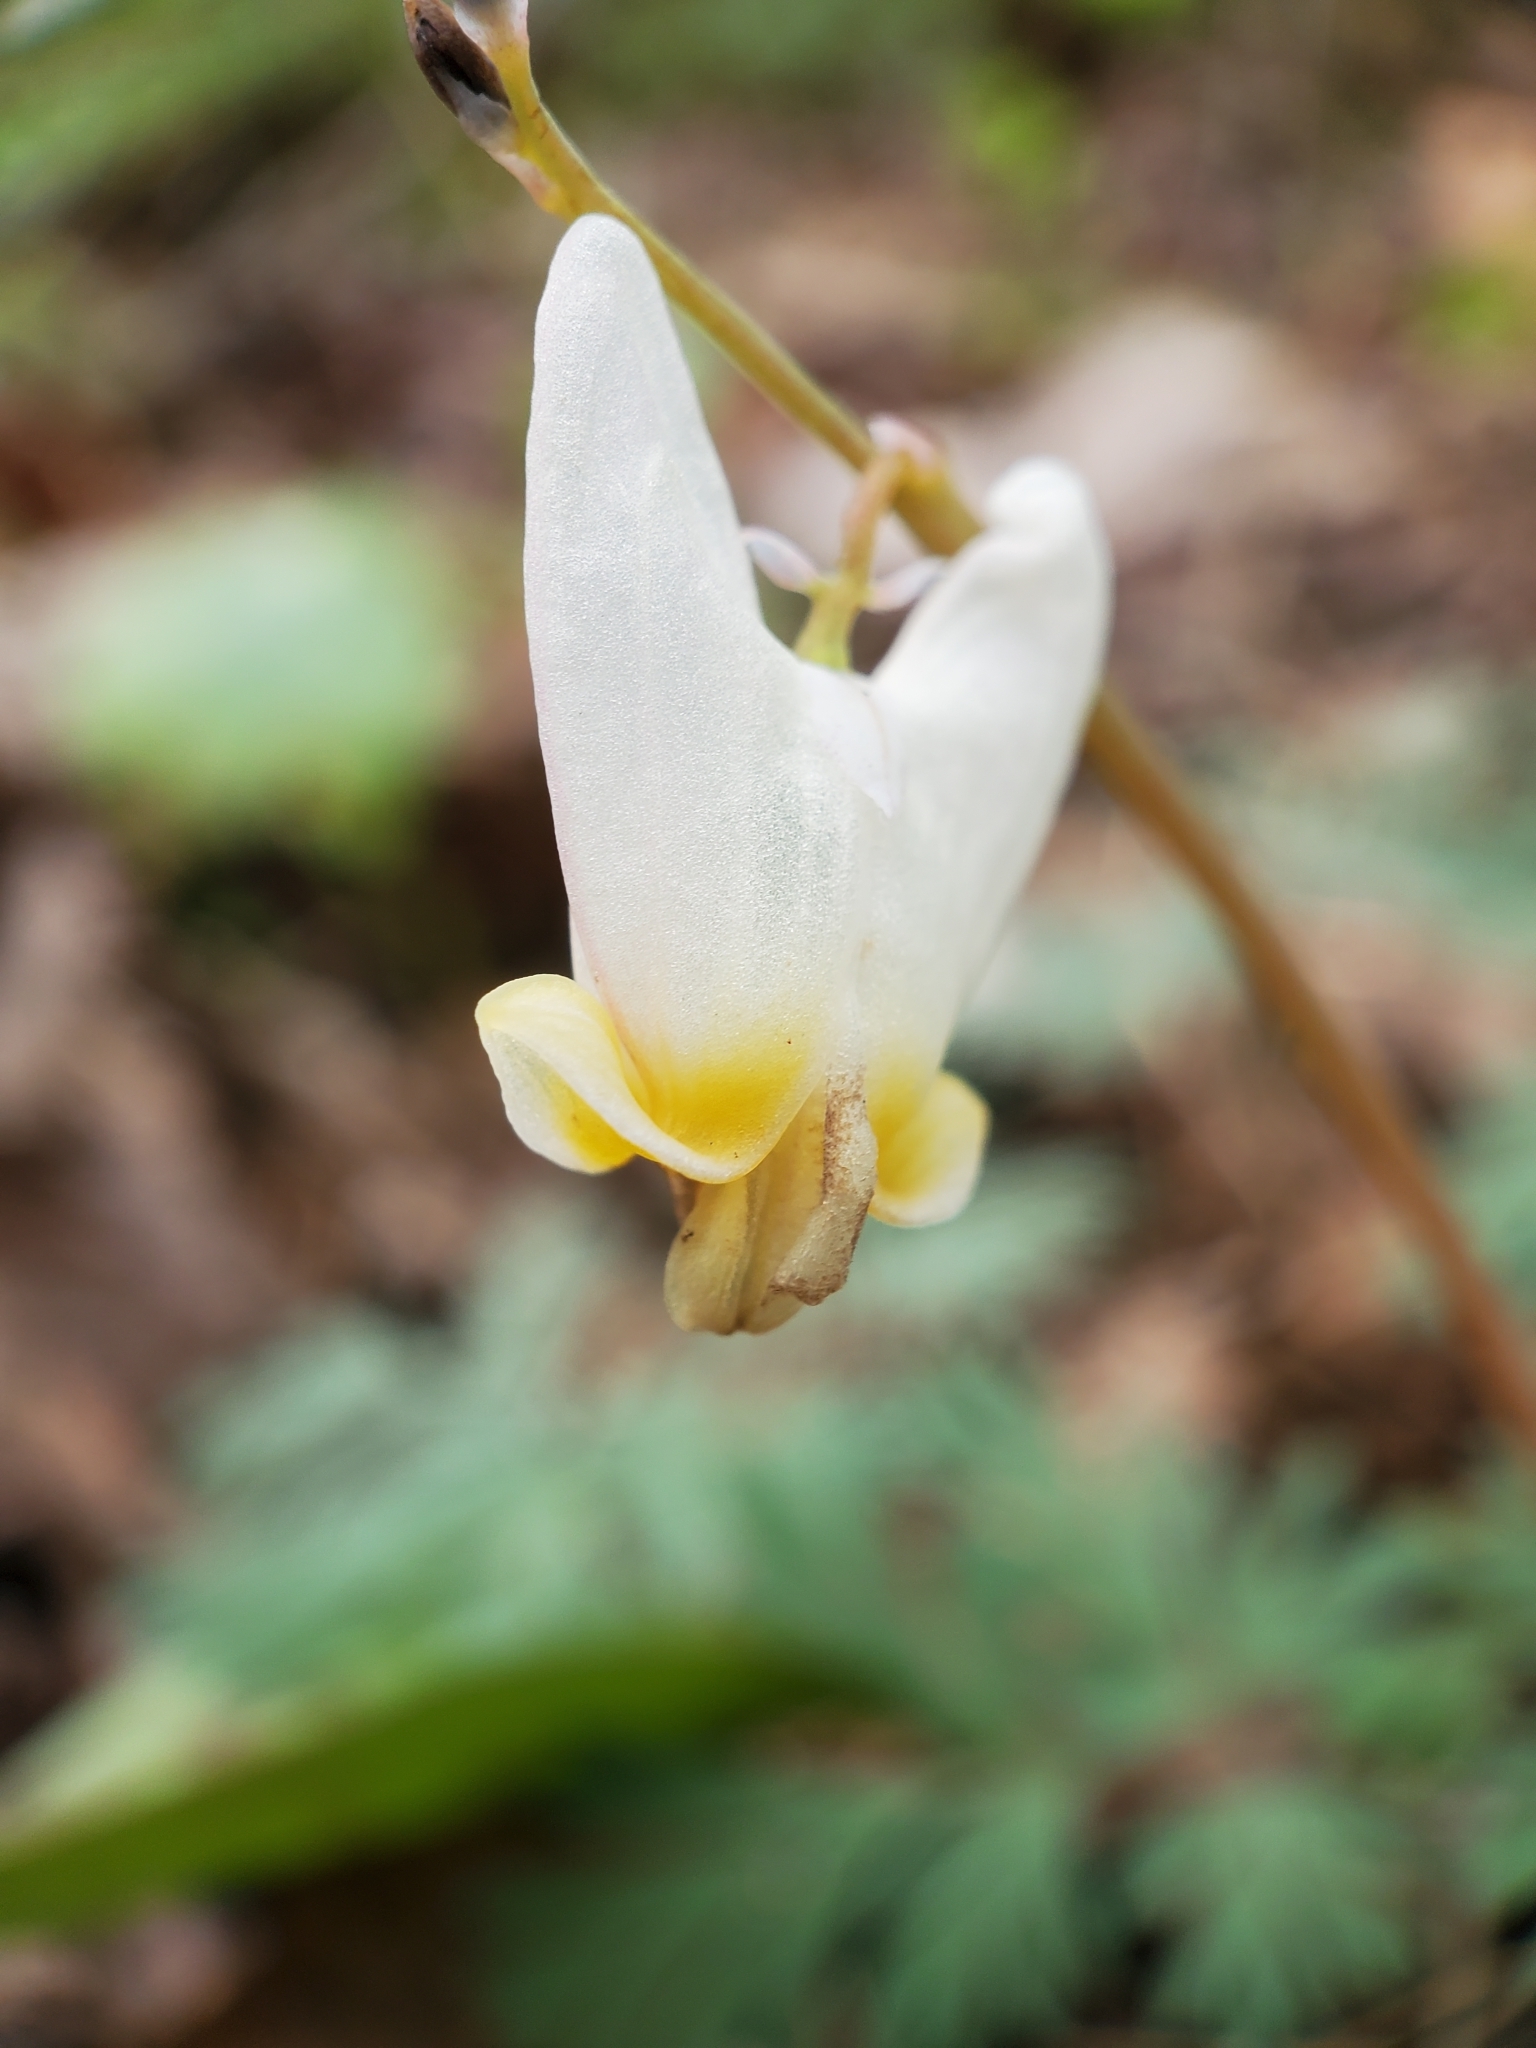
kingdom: Plantae
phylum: Tracheophyta
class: Magnoliopsida
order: Ranunculales
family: Papaveraceae
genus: Dicentra
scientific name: Dicentra cucullaria
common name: Dutchman's breeches
